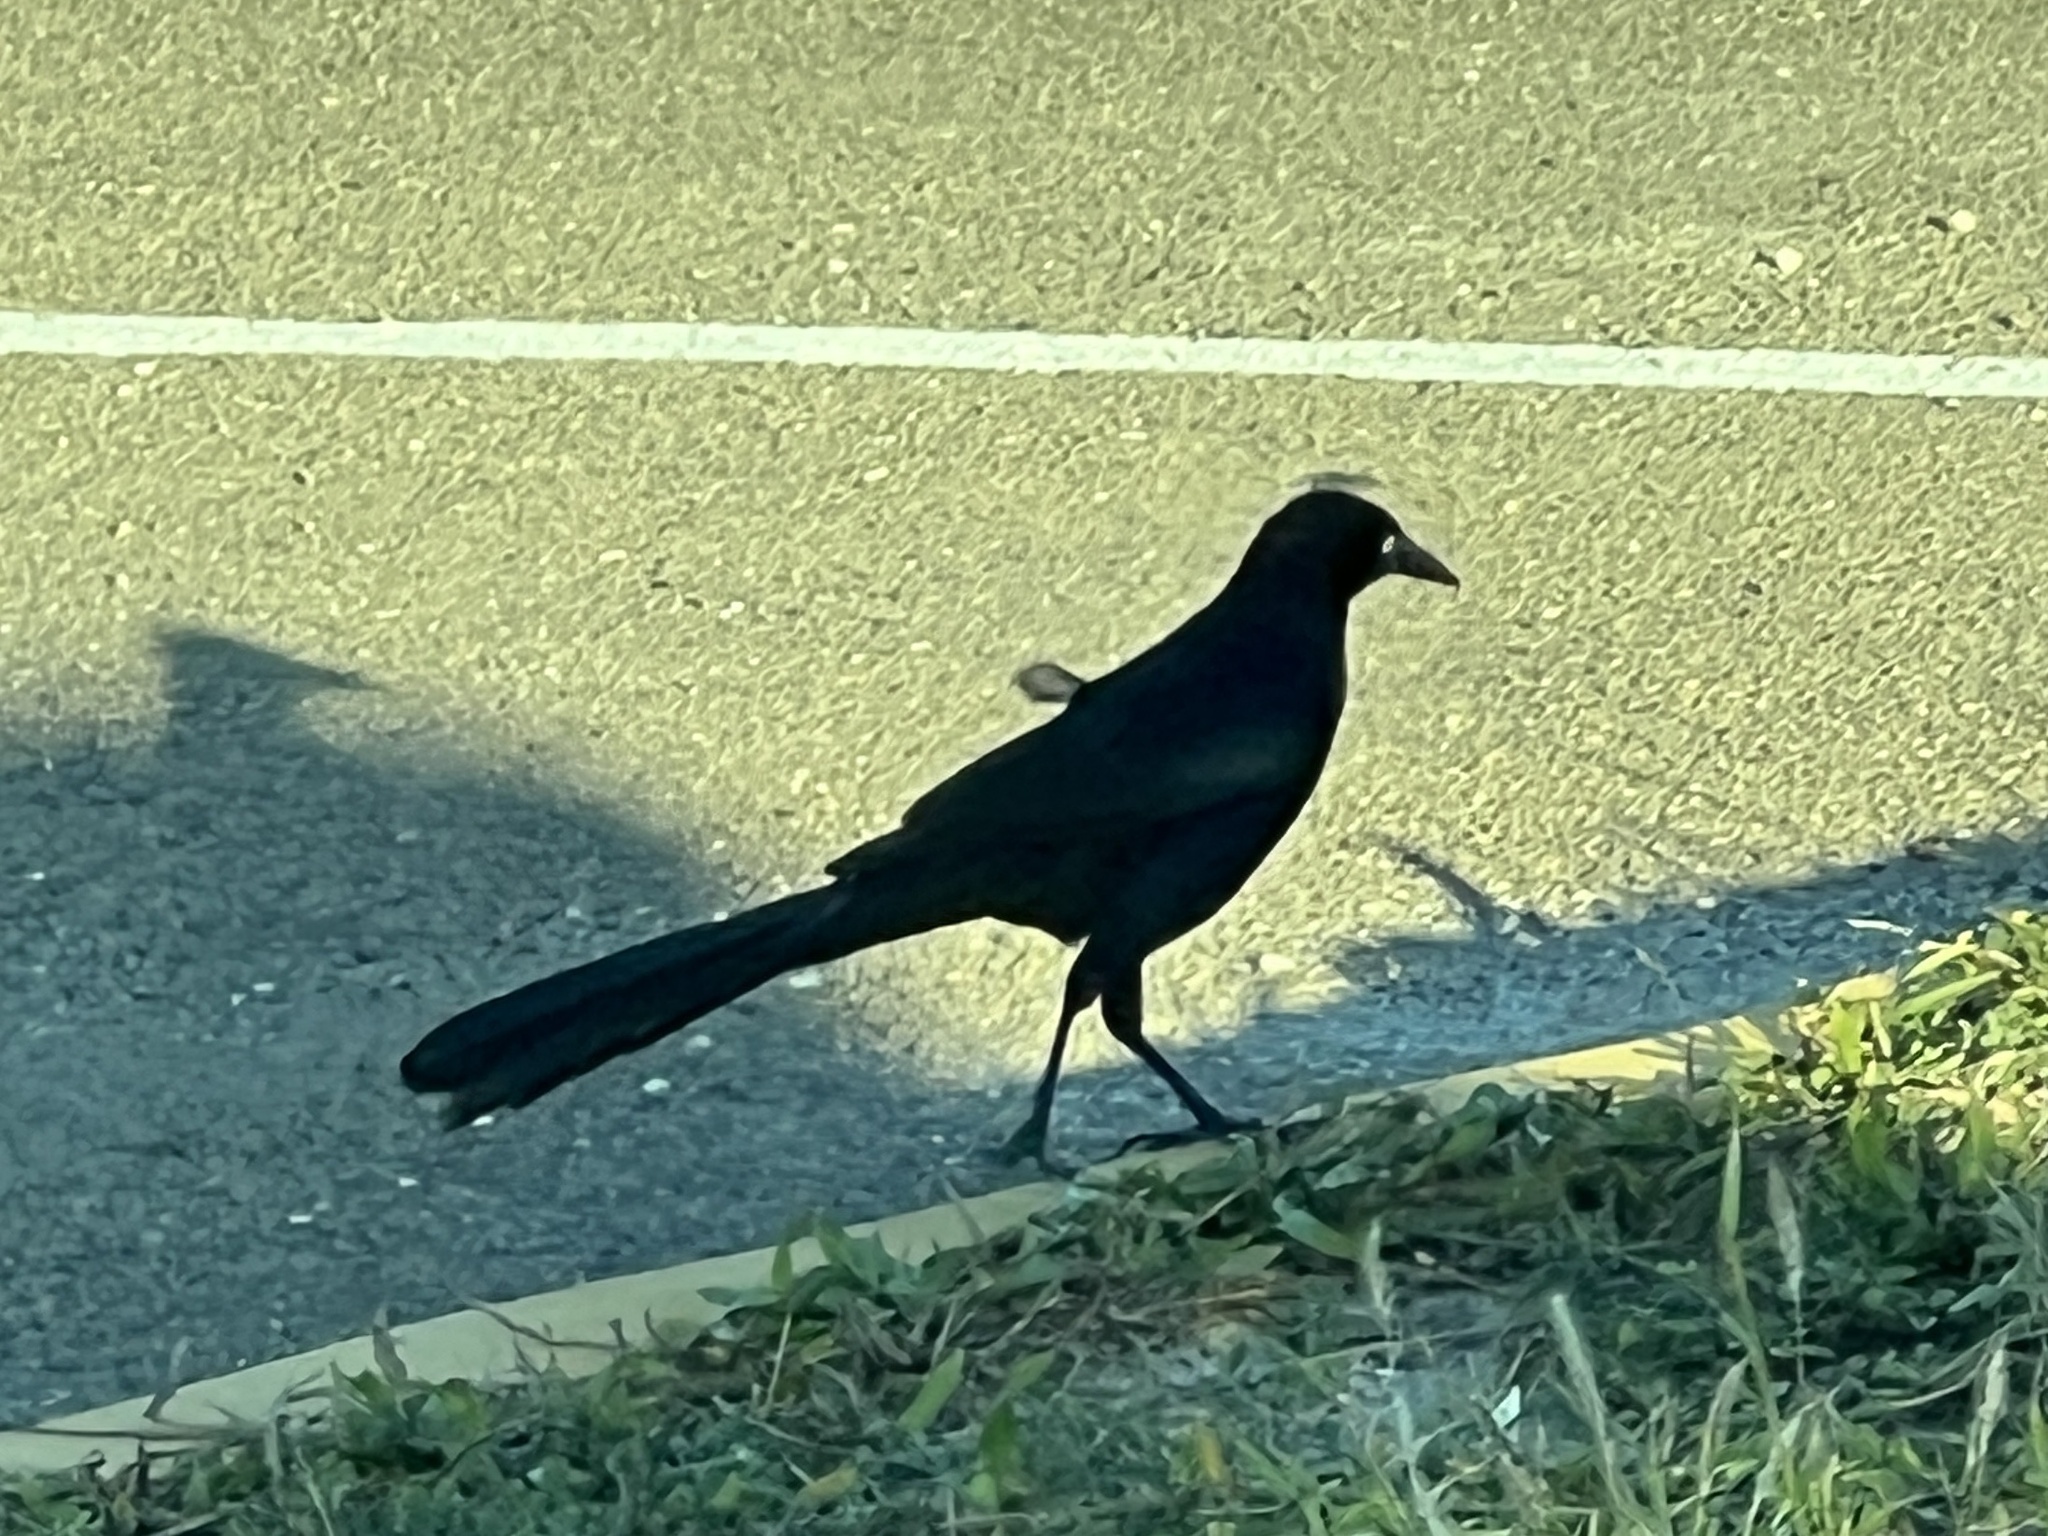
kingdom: Animalia
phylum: Chordata
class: Aves
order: Passeriformes
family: Icteridae
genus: Quiscalus
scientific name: Quiscalus mexicanus
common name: Great-tailed grackle
